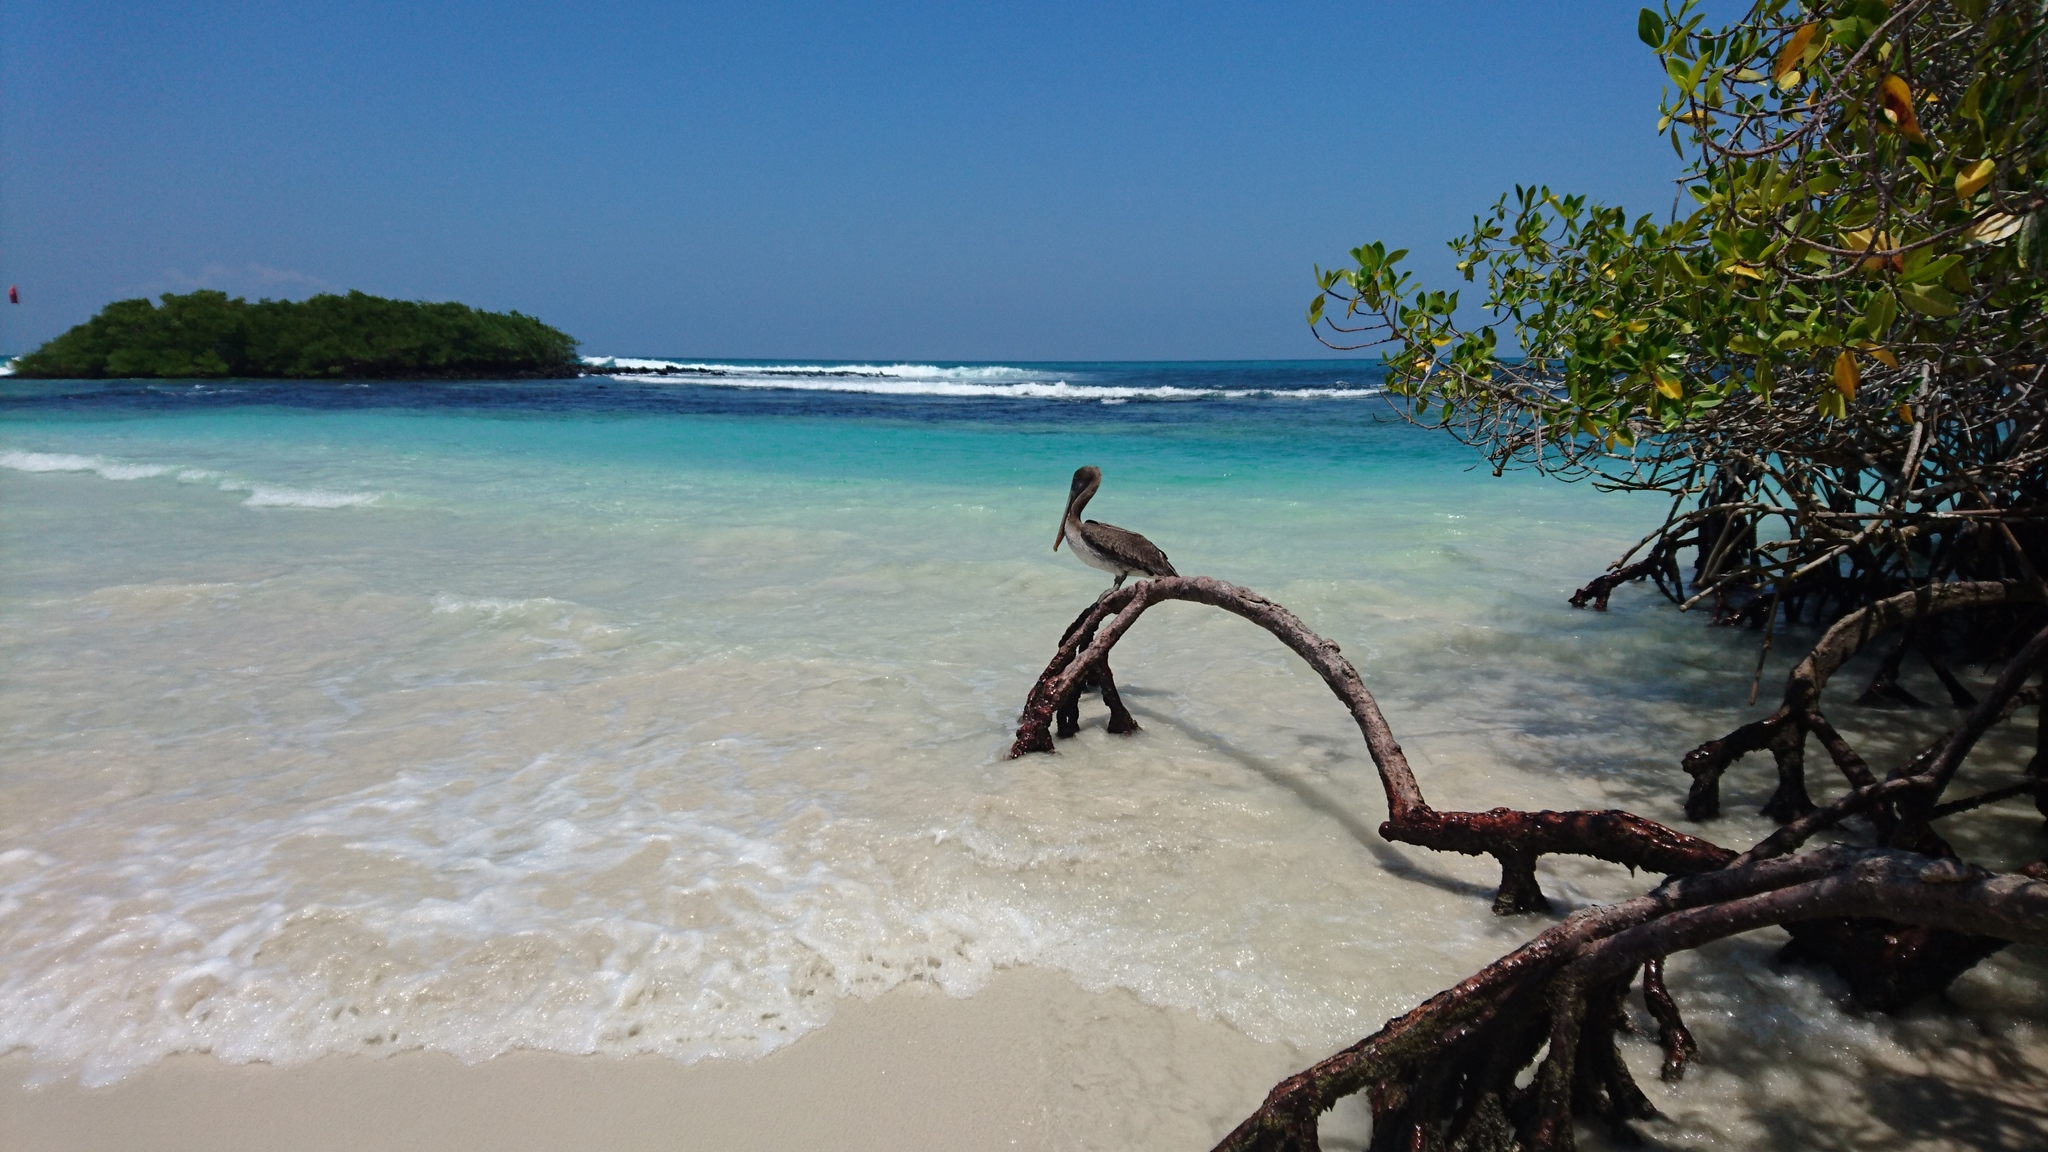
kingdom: Animalia
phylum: Chordata
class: Aves
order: Pelecaniformes
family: Pelecanidae
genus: Pelecanus
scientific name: Pelecanus occidentalis
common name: Brown pelican
